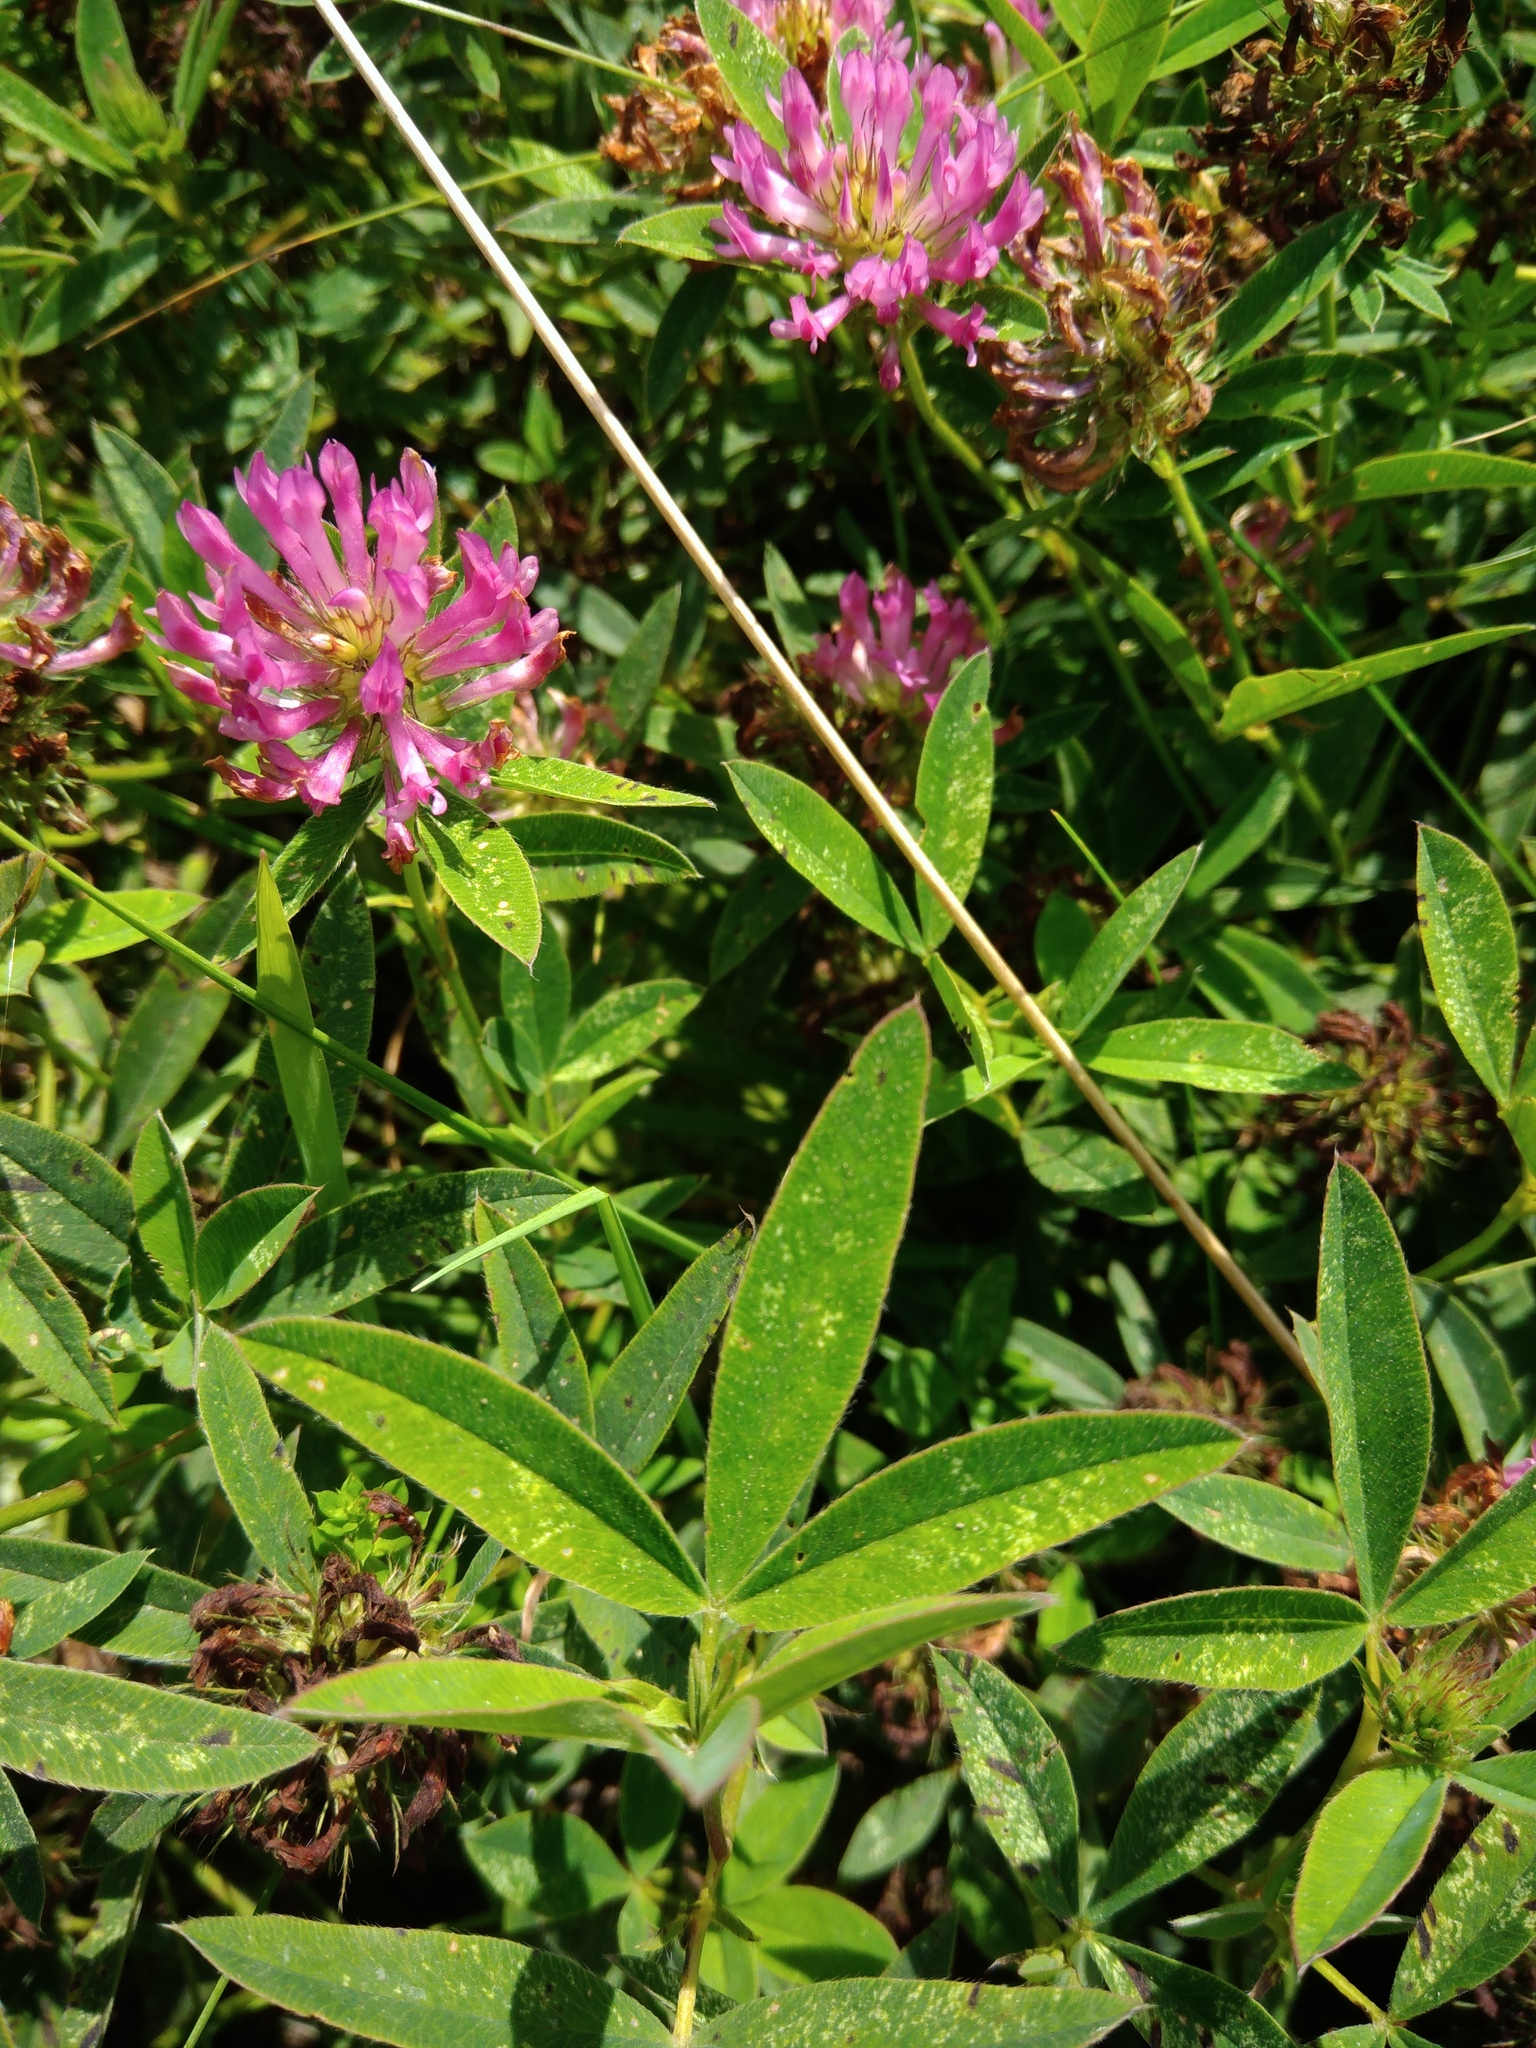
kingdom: Plantae
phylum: Tracheophyta
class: Magnoliopsida
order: Fabales
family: Fabaceae
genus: Trifolium
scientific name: Trifolium medium
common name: Zigzag clover
